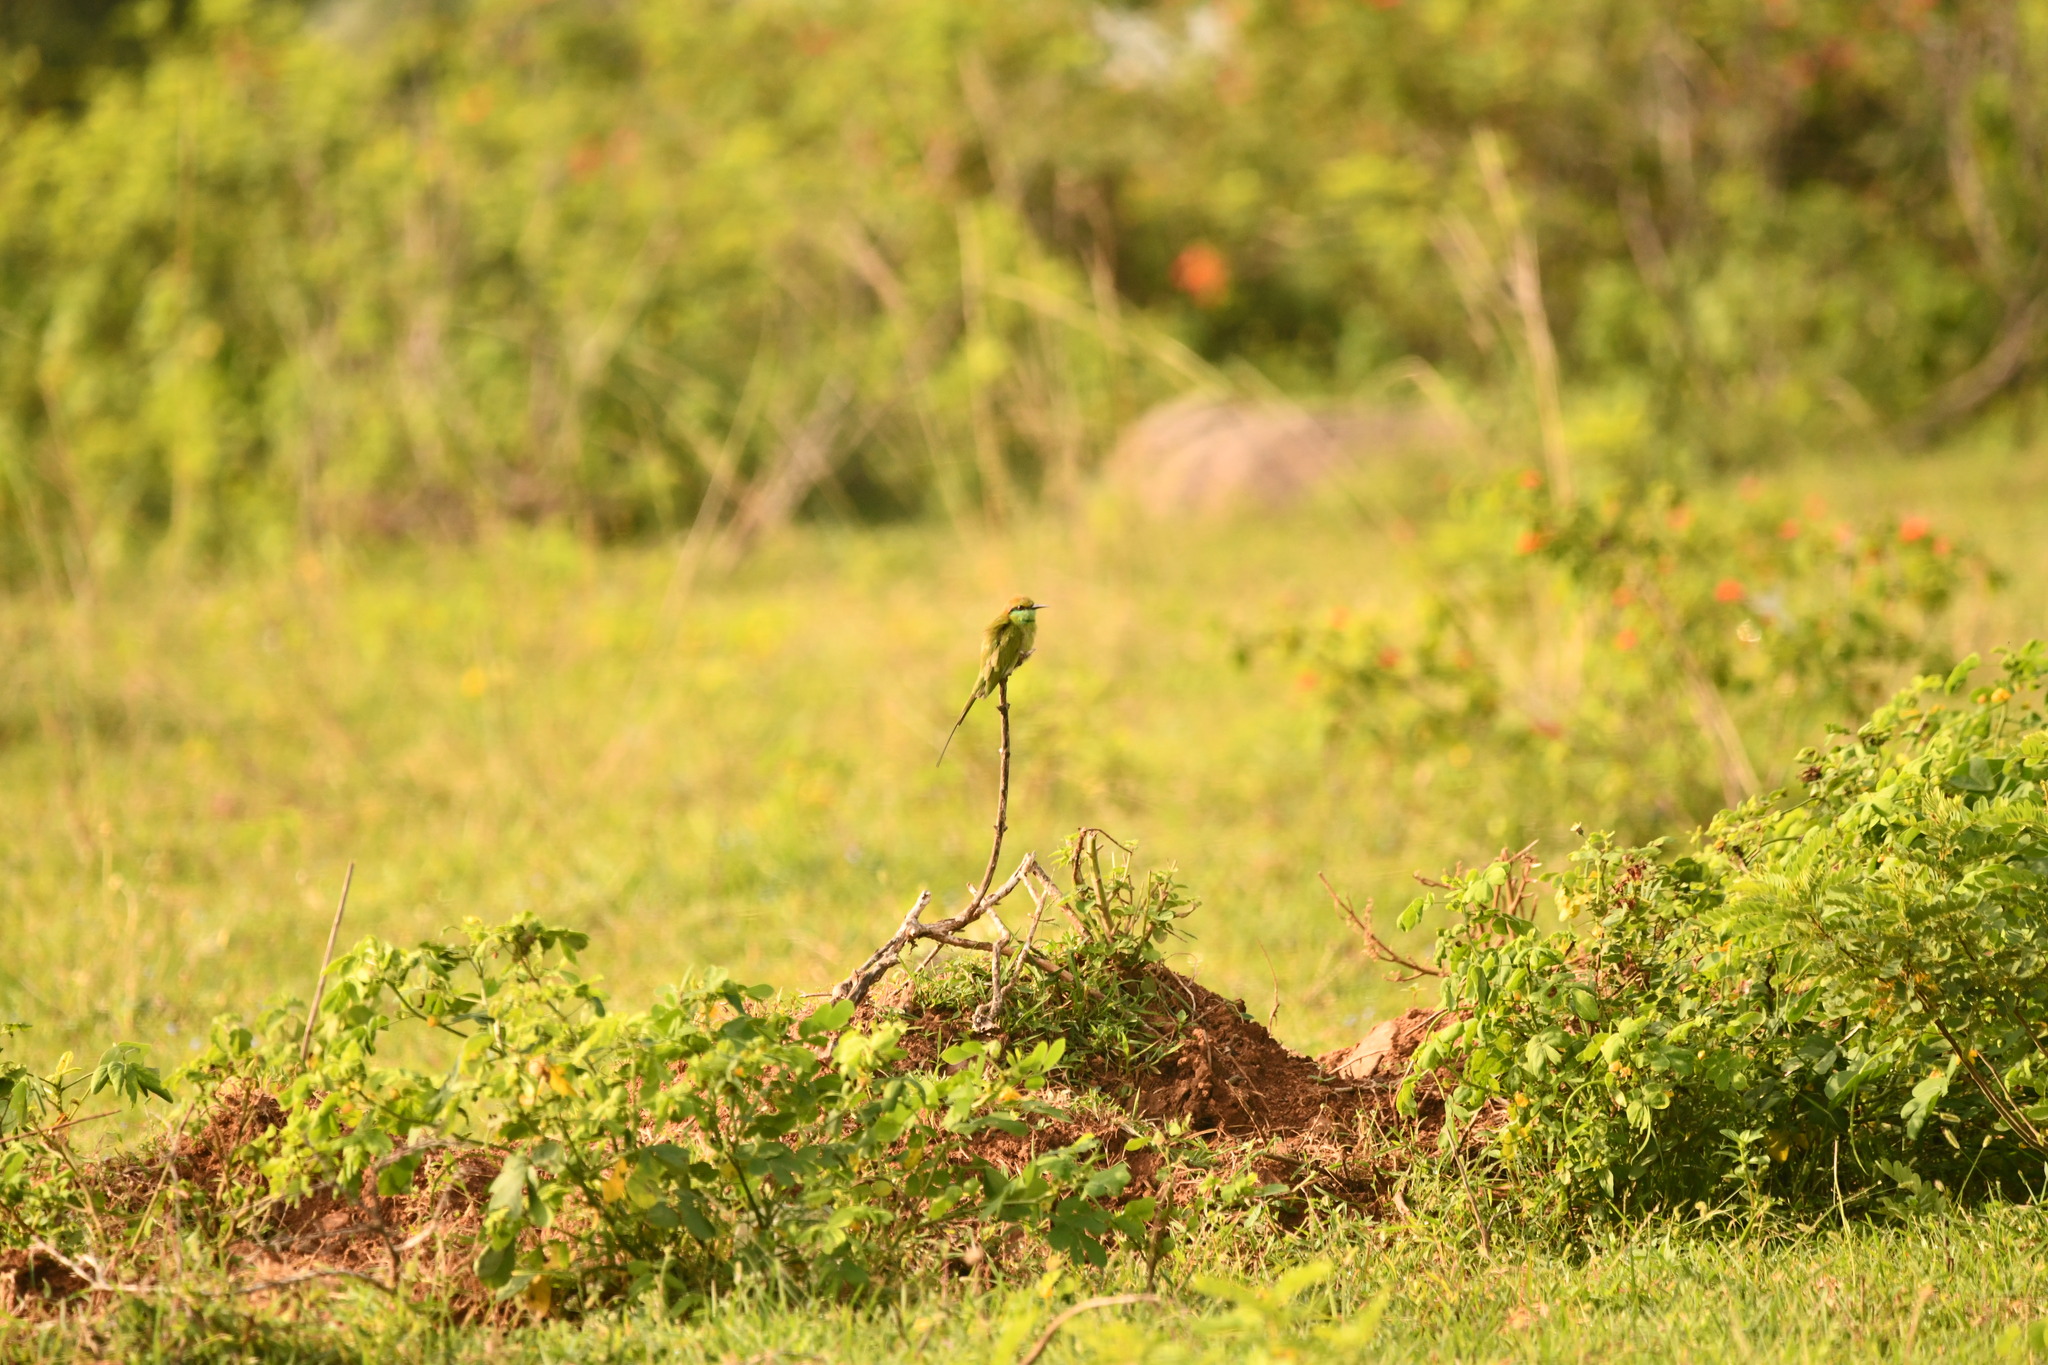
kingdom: Animalia
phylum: Chordata
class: Aves
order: Coraciiformes
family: Meropidae
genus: Merops
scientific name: Merops orientalis
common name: Green bee-eater
